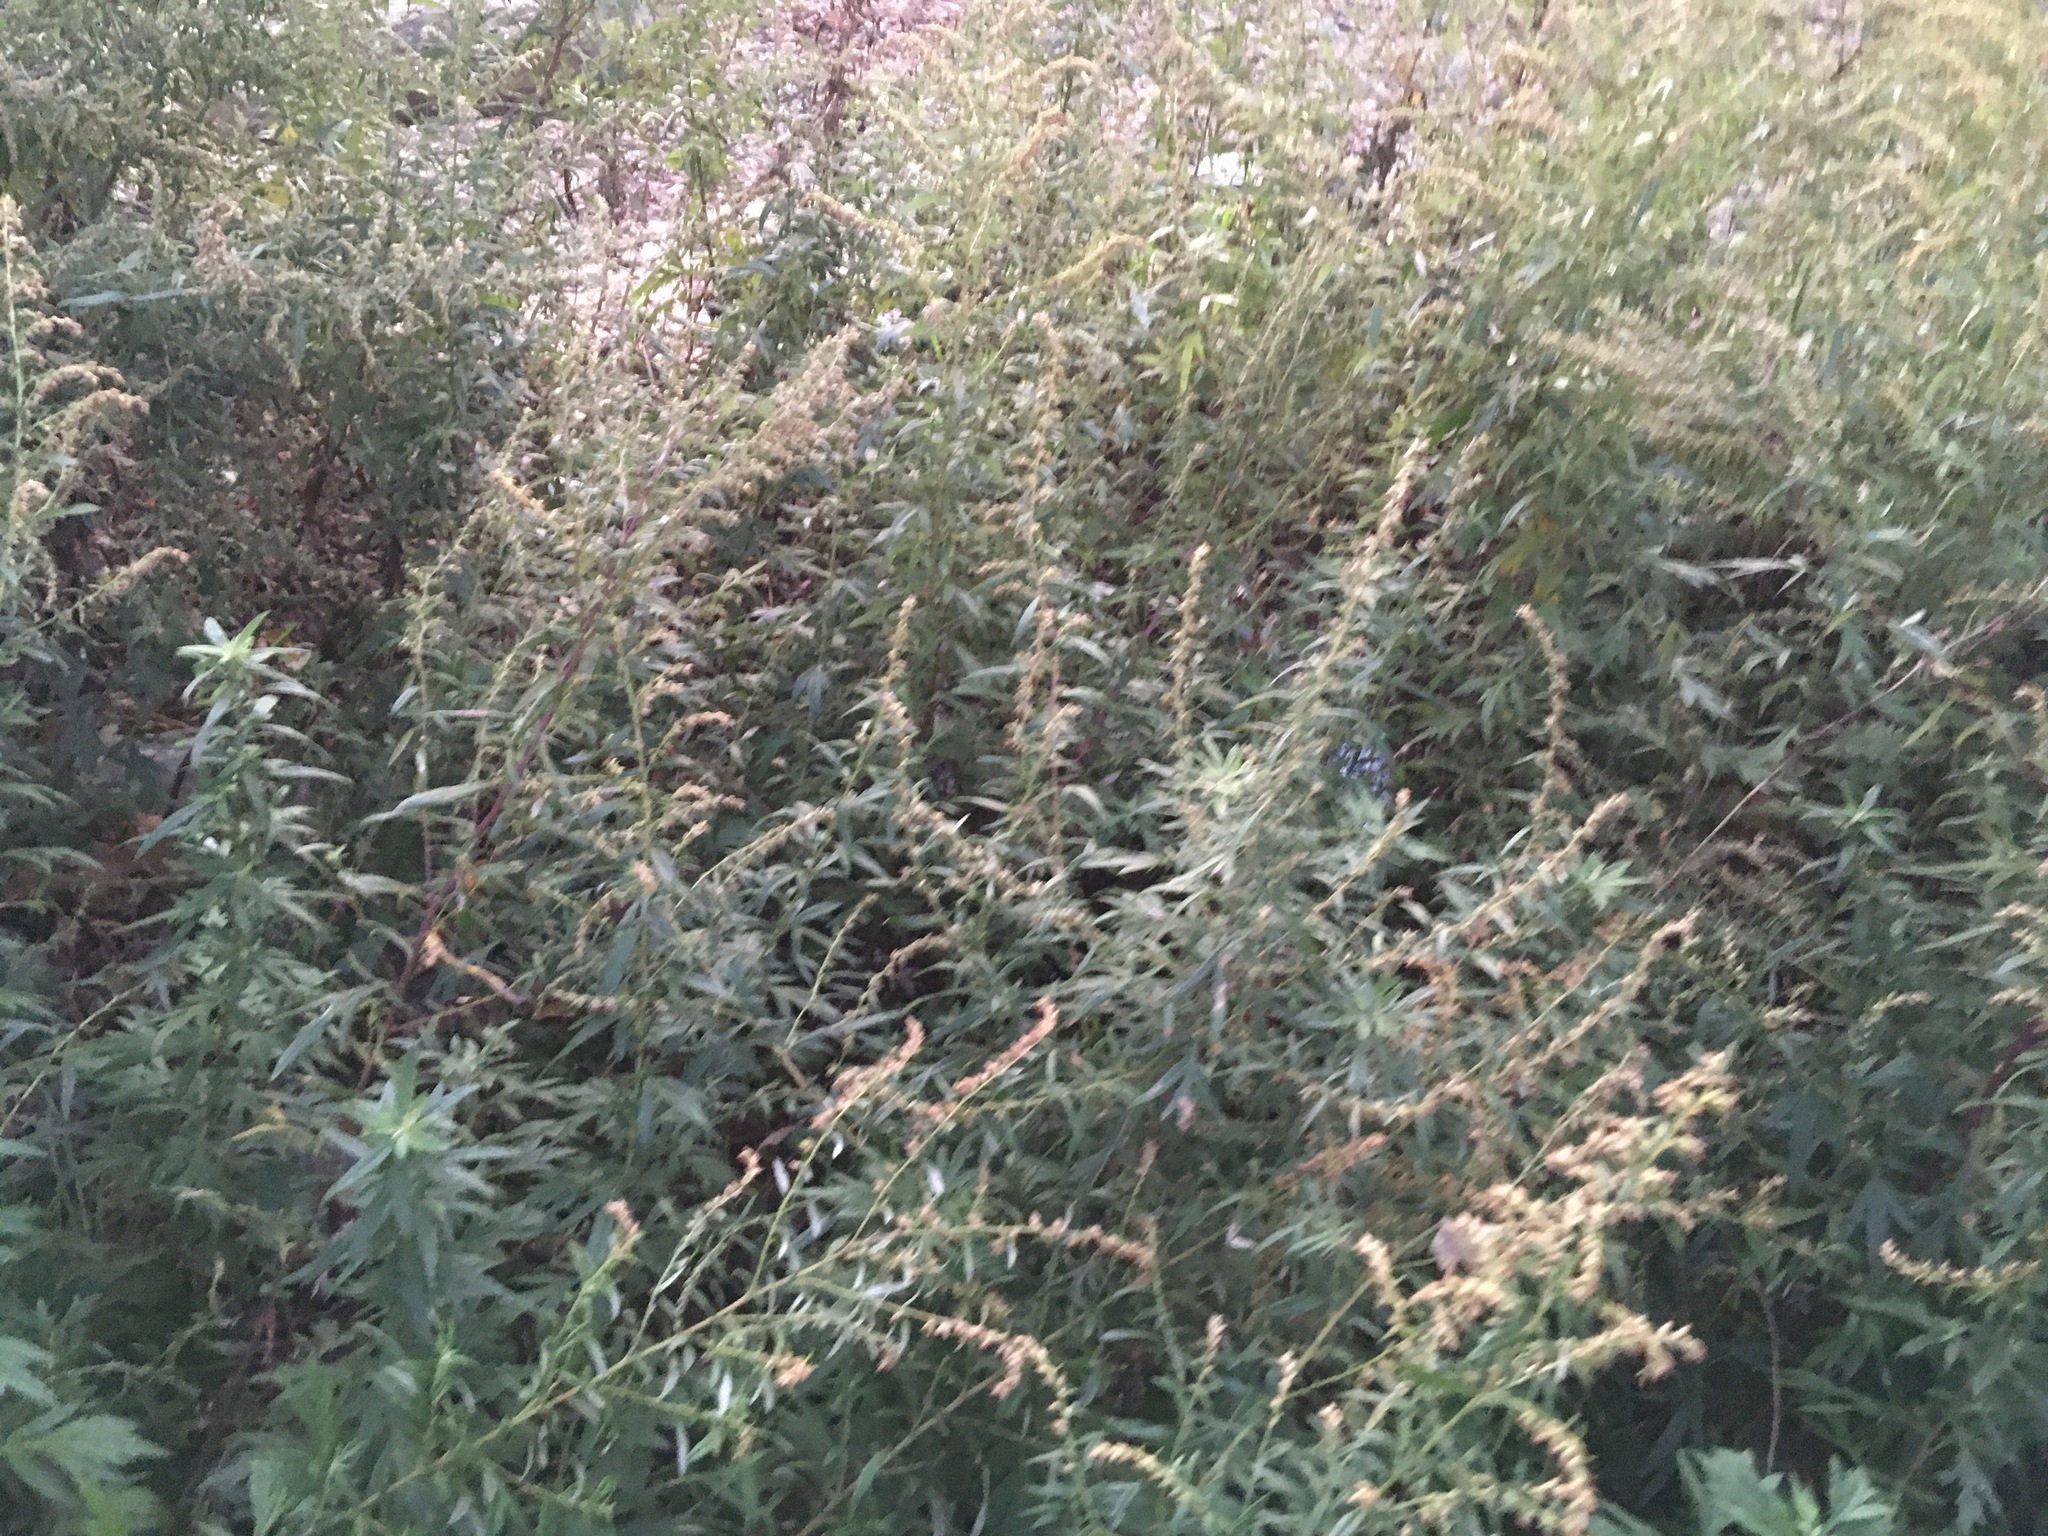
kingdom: Plantae
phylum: Tracheophyta
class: Magnoliopsida
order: Asterales
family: Asteraceae
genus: Artemisia
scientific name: Artemisia vulgaris
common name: Mugwort
